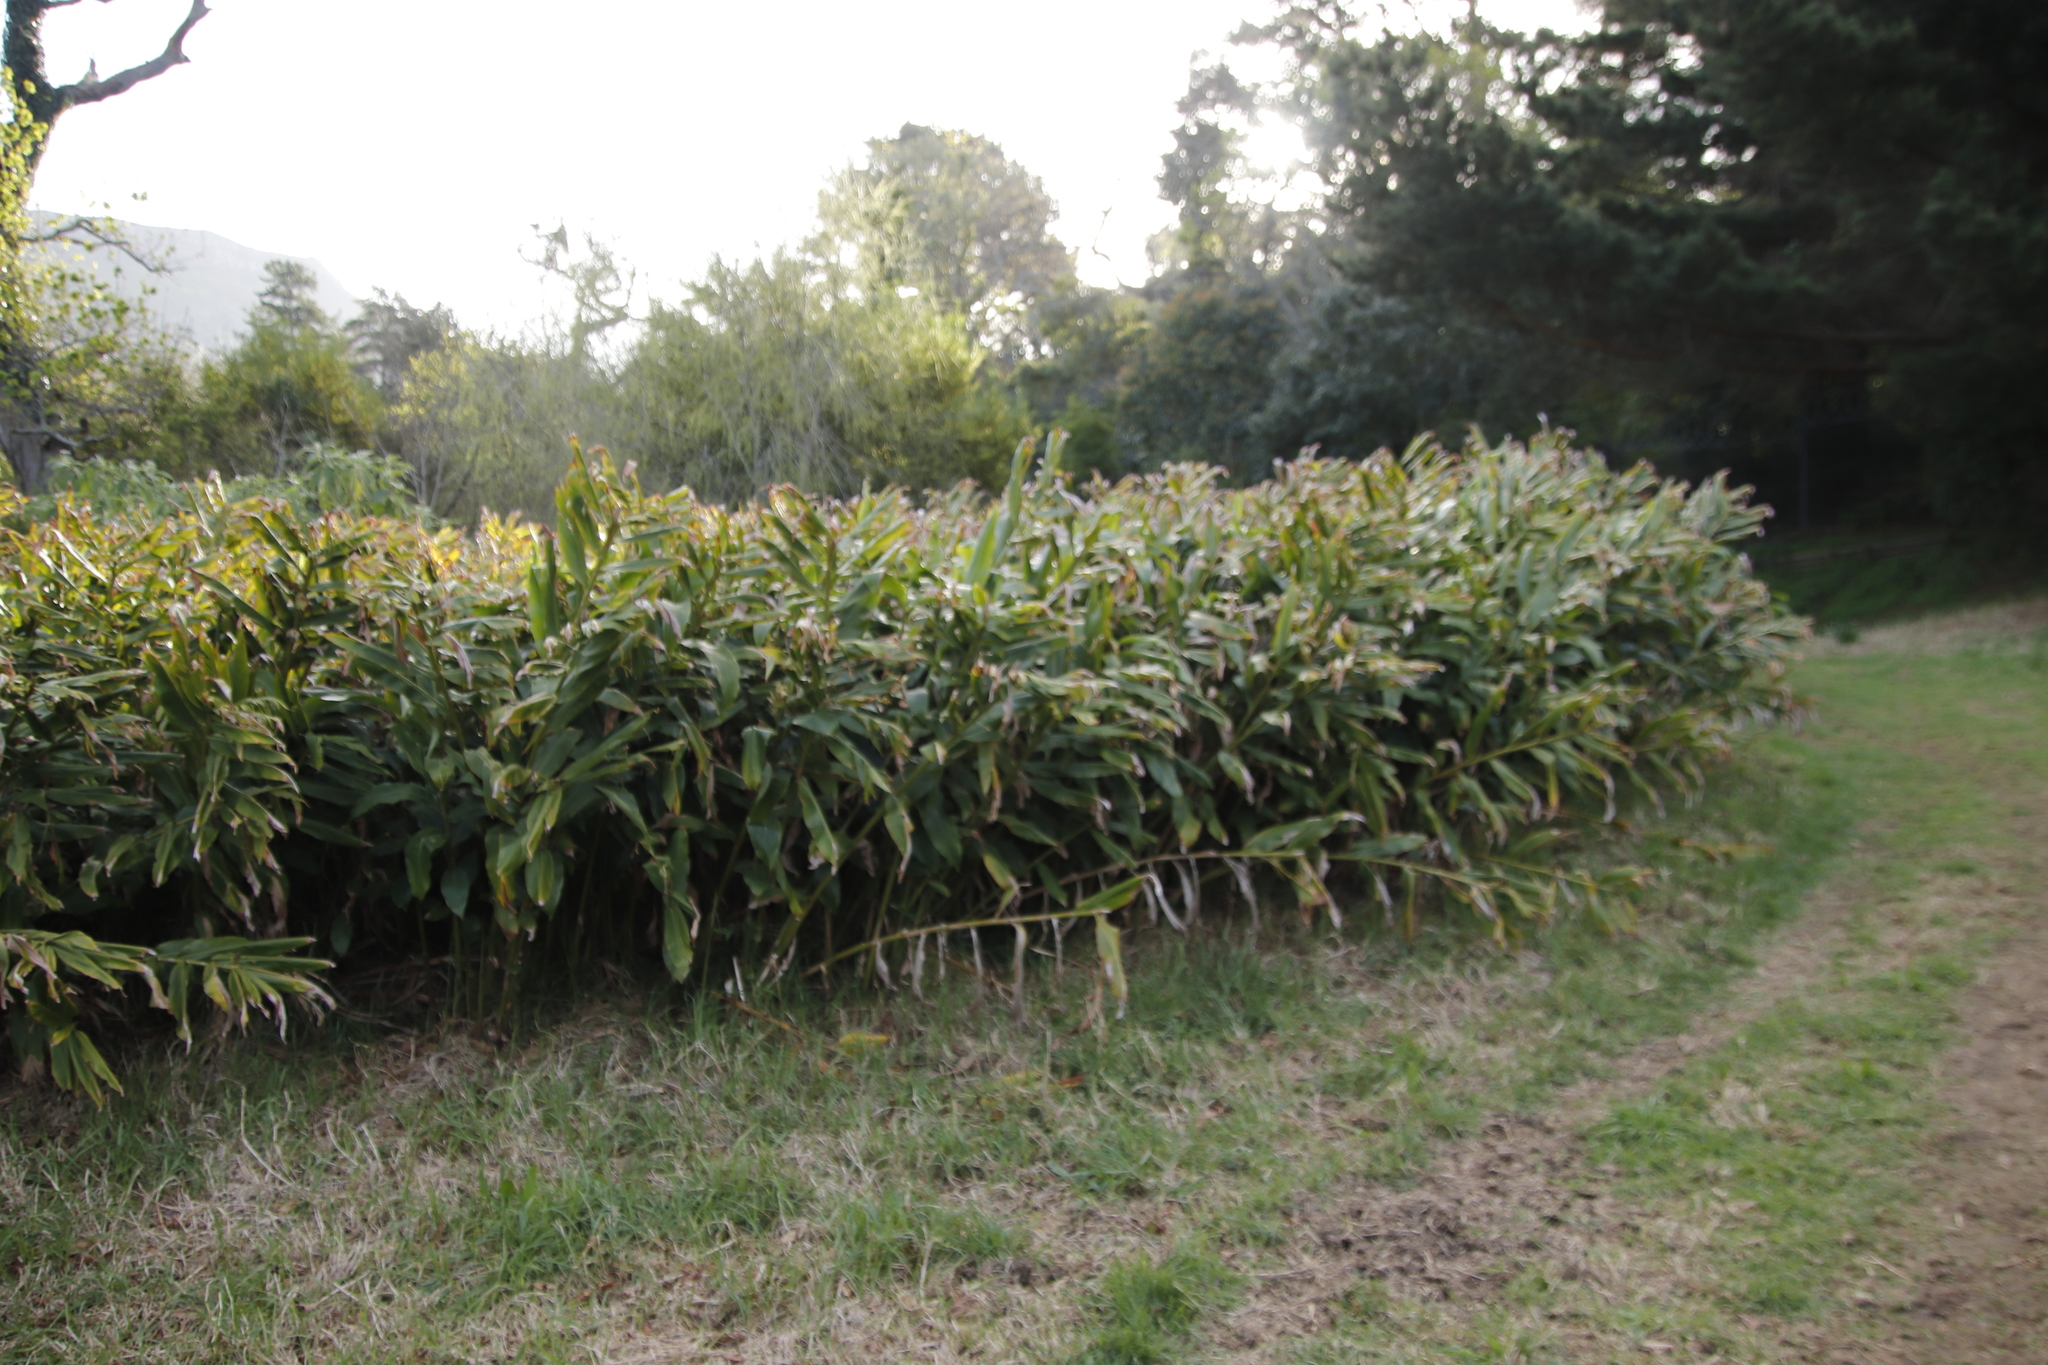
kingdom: Plantae
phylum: Tracheophyta
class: Liliopsida
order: Zingiberales
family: Zingiberaceae
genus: Hedychium
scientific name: Hedychium gardnerianum
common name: Himalayan ginger
